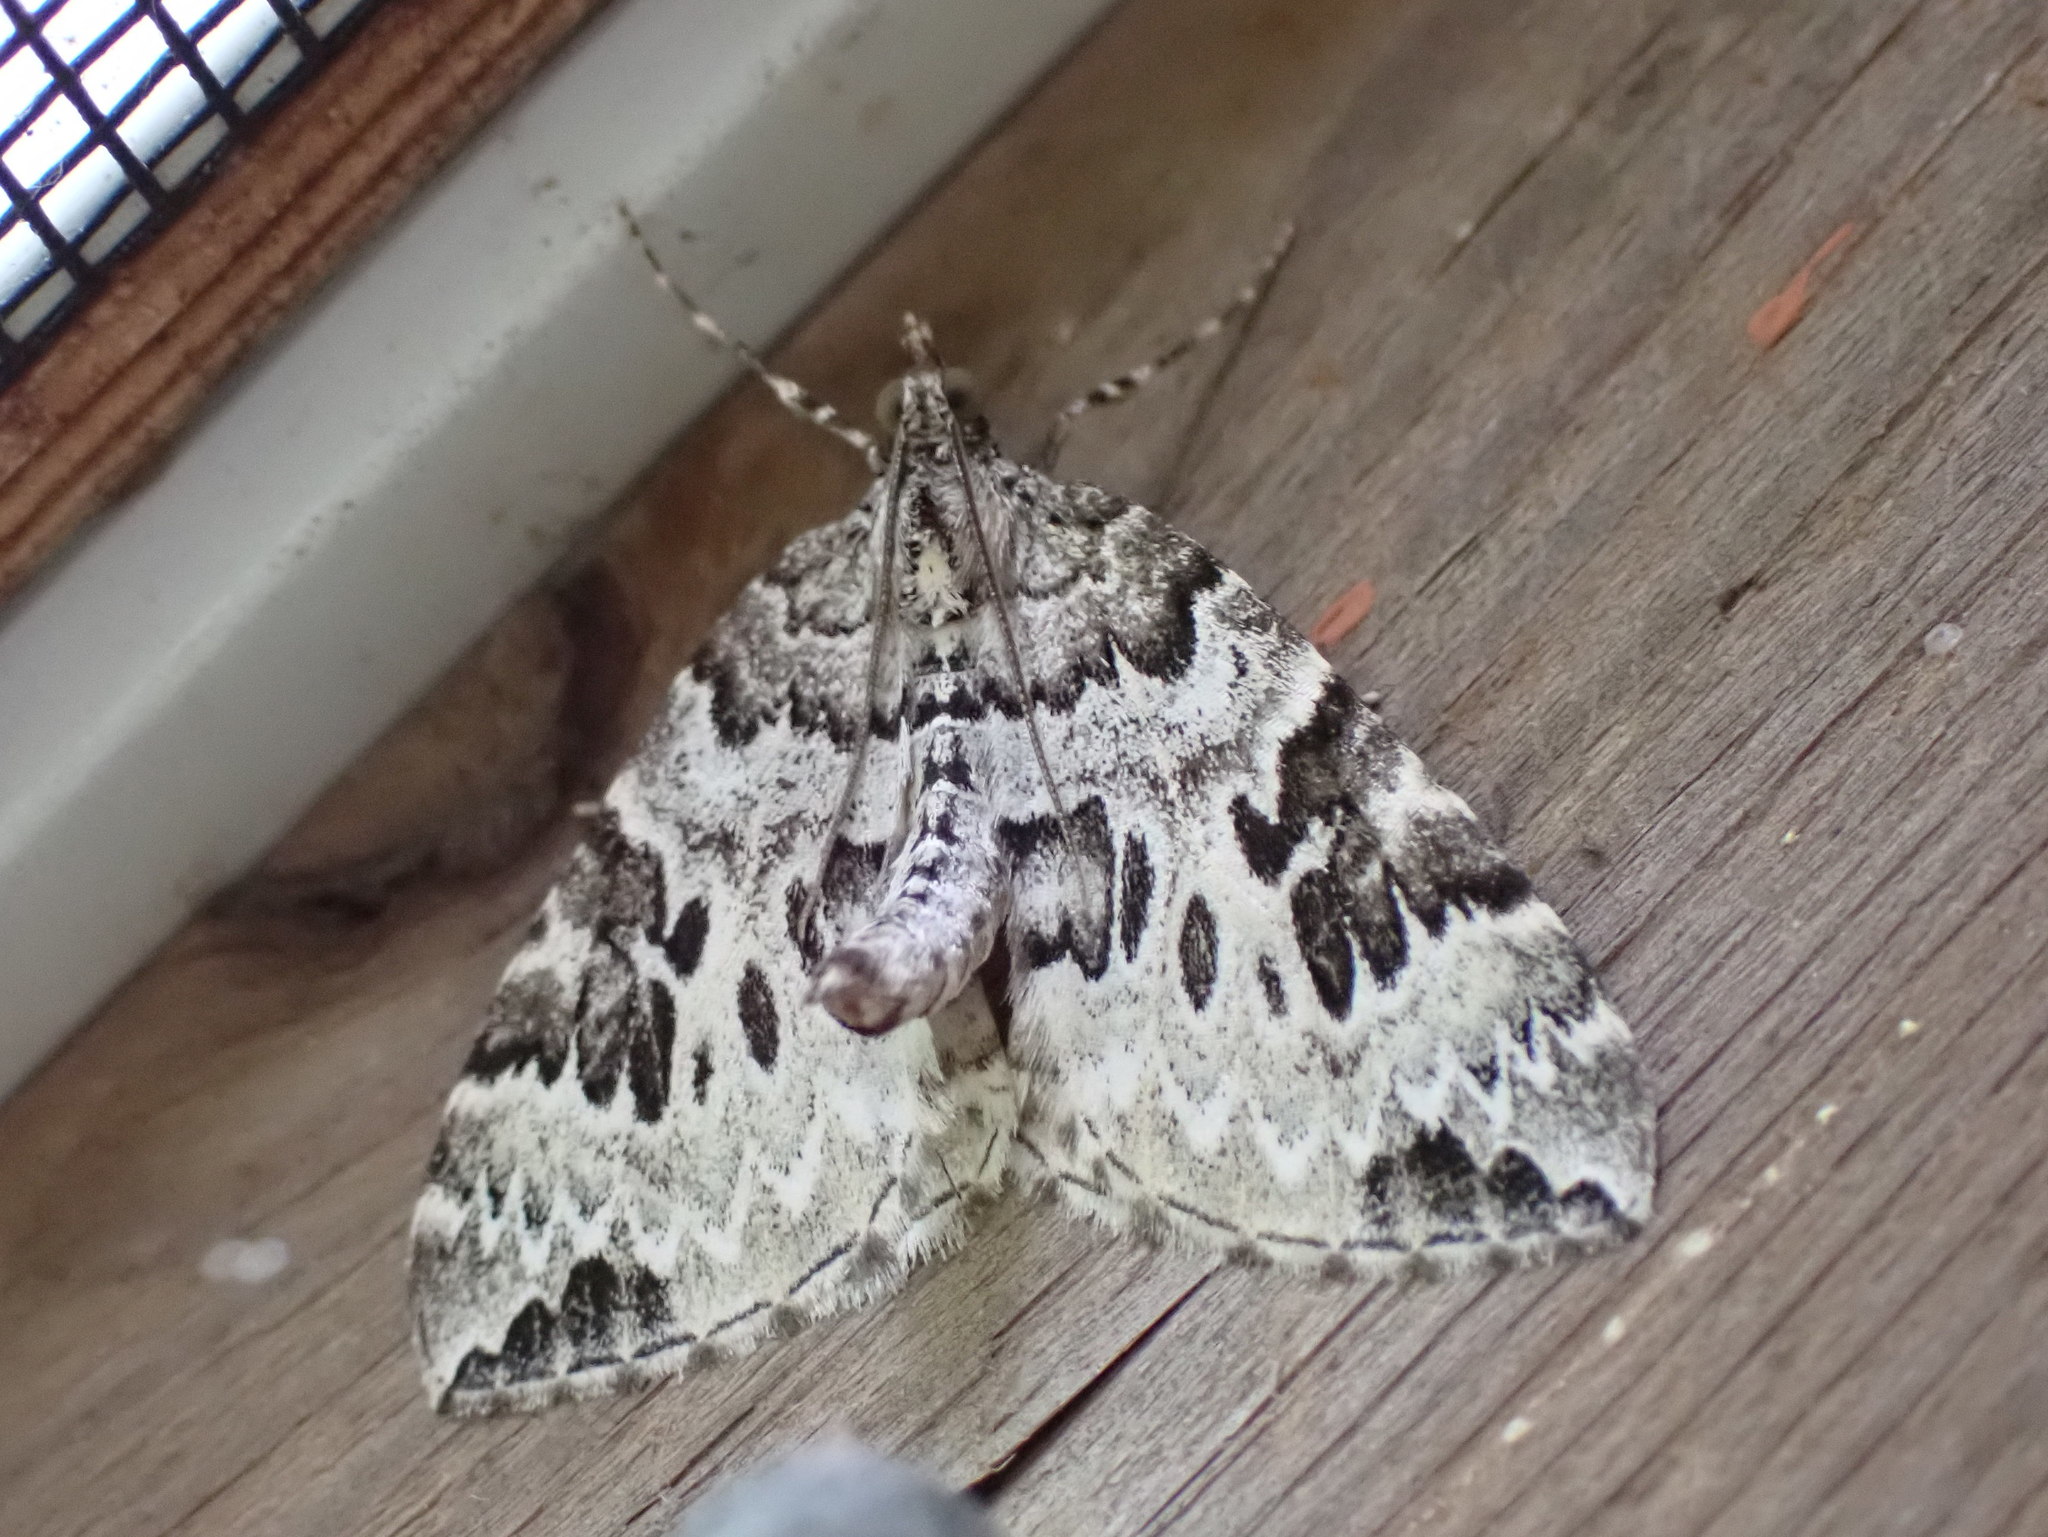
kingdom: Animalia
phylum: Arthropoda
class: Insecta
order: Lepidoptera
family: Geometridae
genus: Eulithis
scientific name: Eulithis explanata
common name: White eulithis
